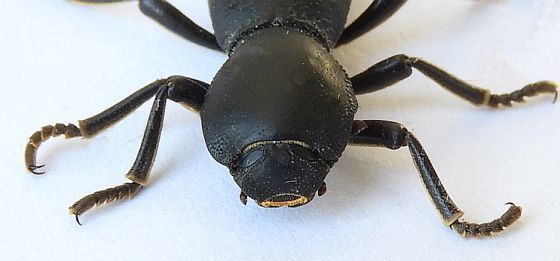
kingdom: Animalia
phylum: Arthropoda
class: Insecta
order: Coleoptera
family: Zopheridae
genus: Zopherus
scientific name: Zopherus gracilis
